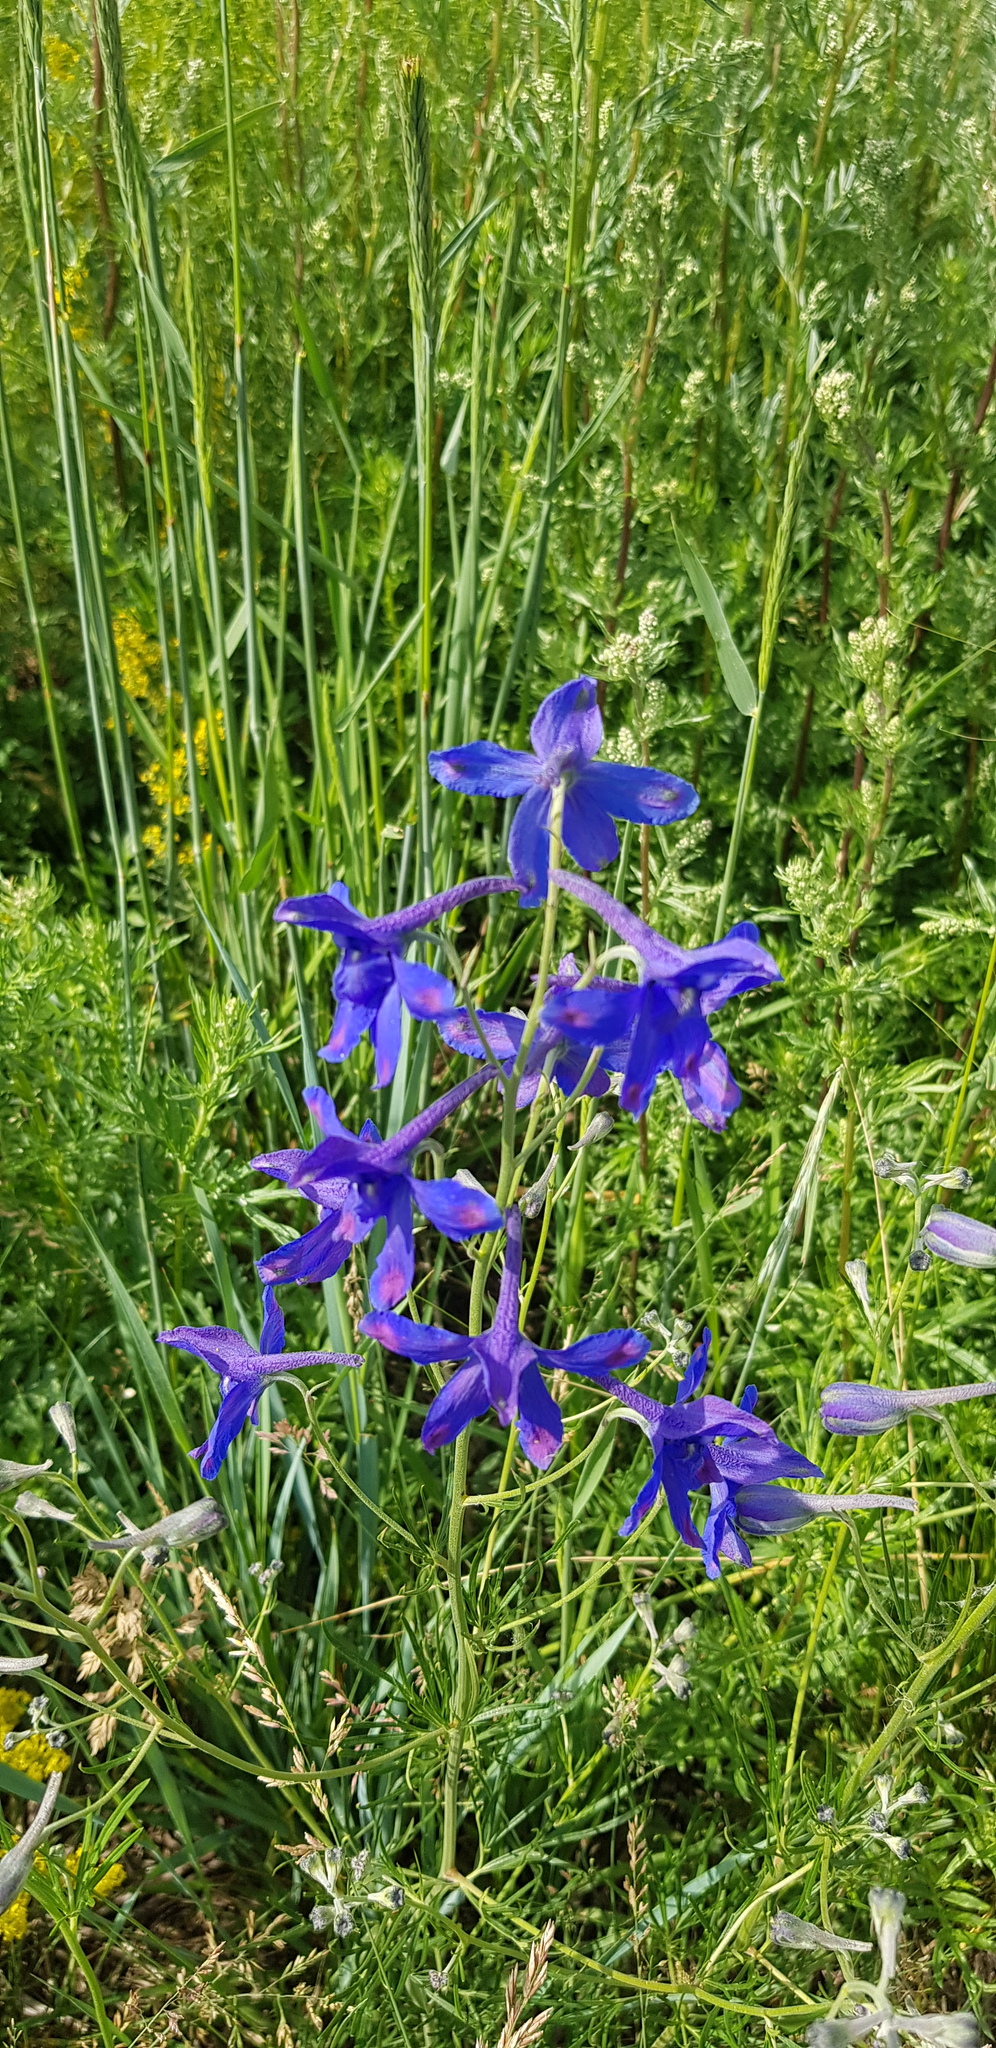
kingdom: Plantae
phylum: Tracheophyta
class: Magnoliopsida
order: Ranunculales
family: Ranunculaceae
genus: Delphinium
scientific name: Delphinium grandiflorum
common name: Siberian larkspur
